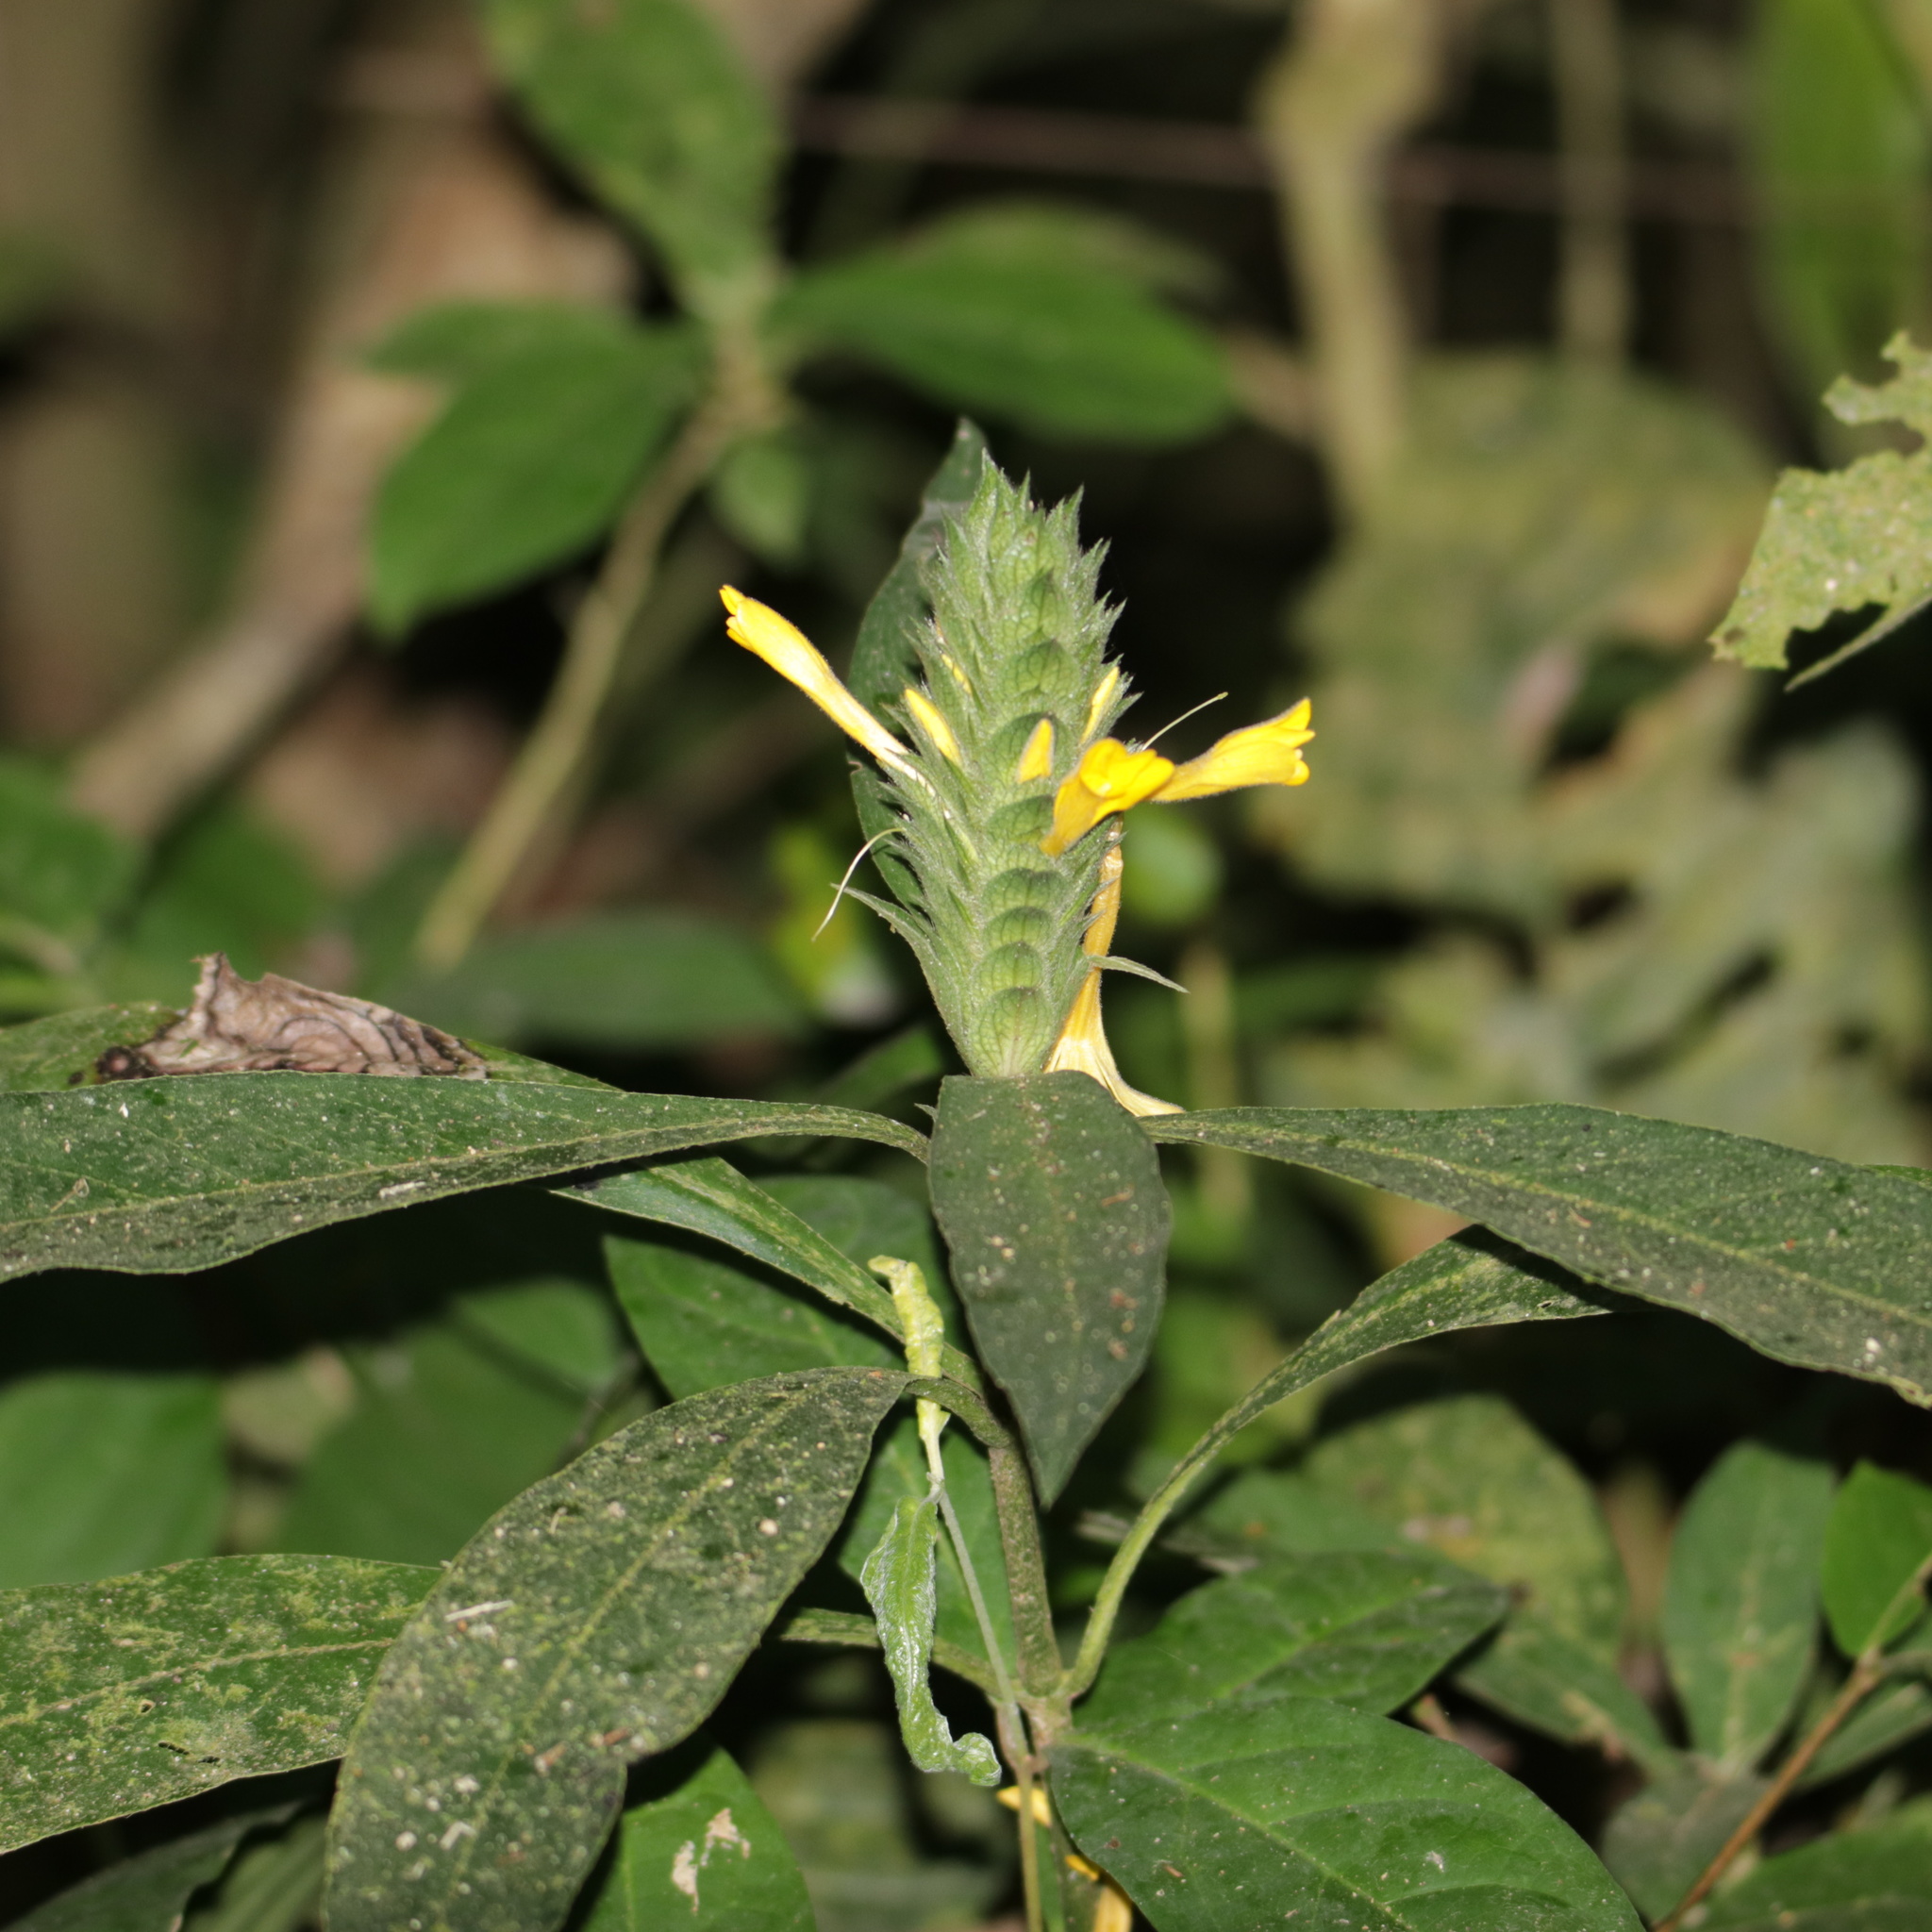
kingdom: Plantae
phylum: Tracheophyta
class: Magnoliopsida
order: Lamiales
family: Acanthaceae
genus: Barleria
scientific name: Barleria oenotheroides
